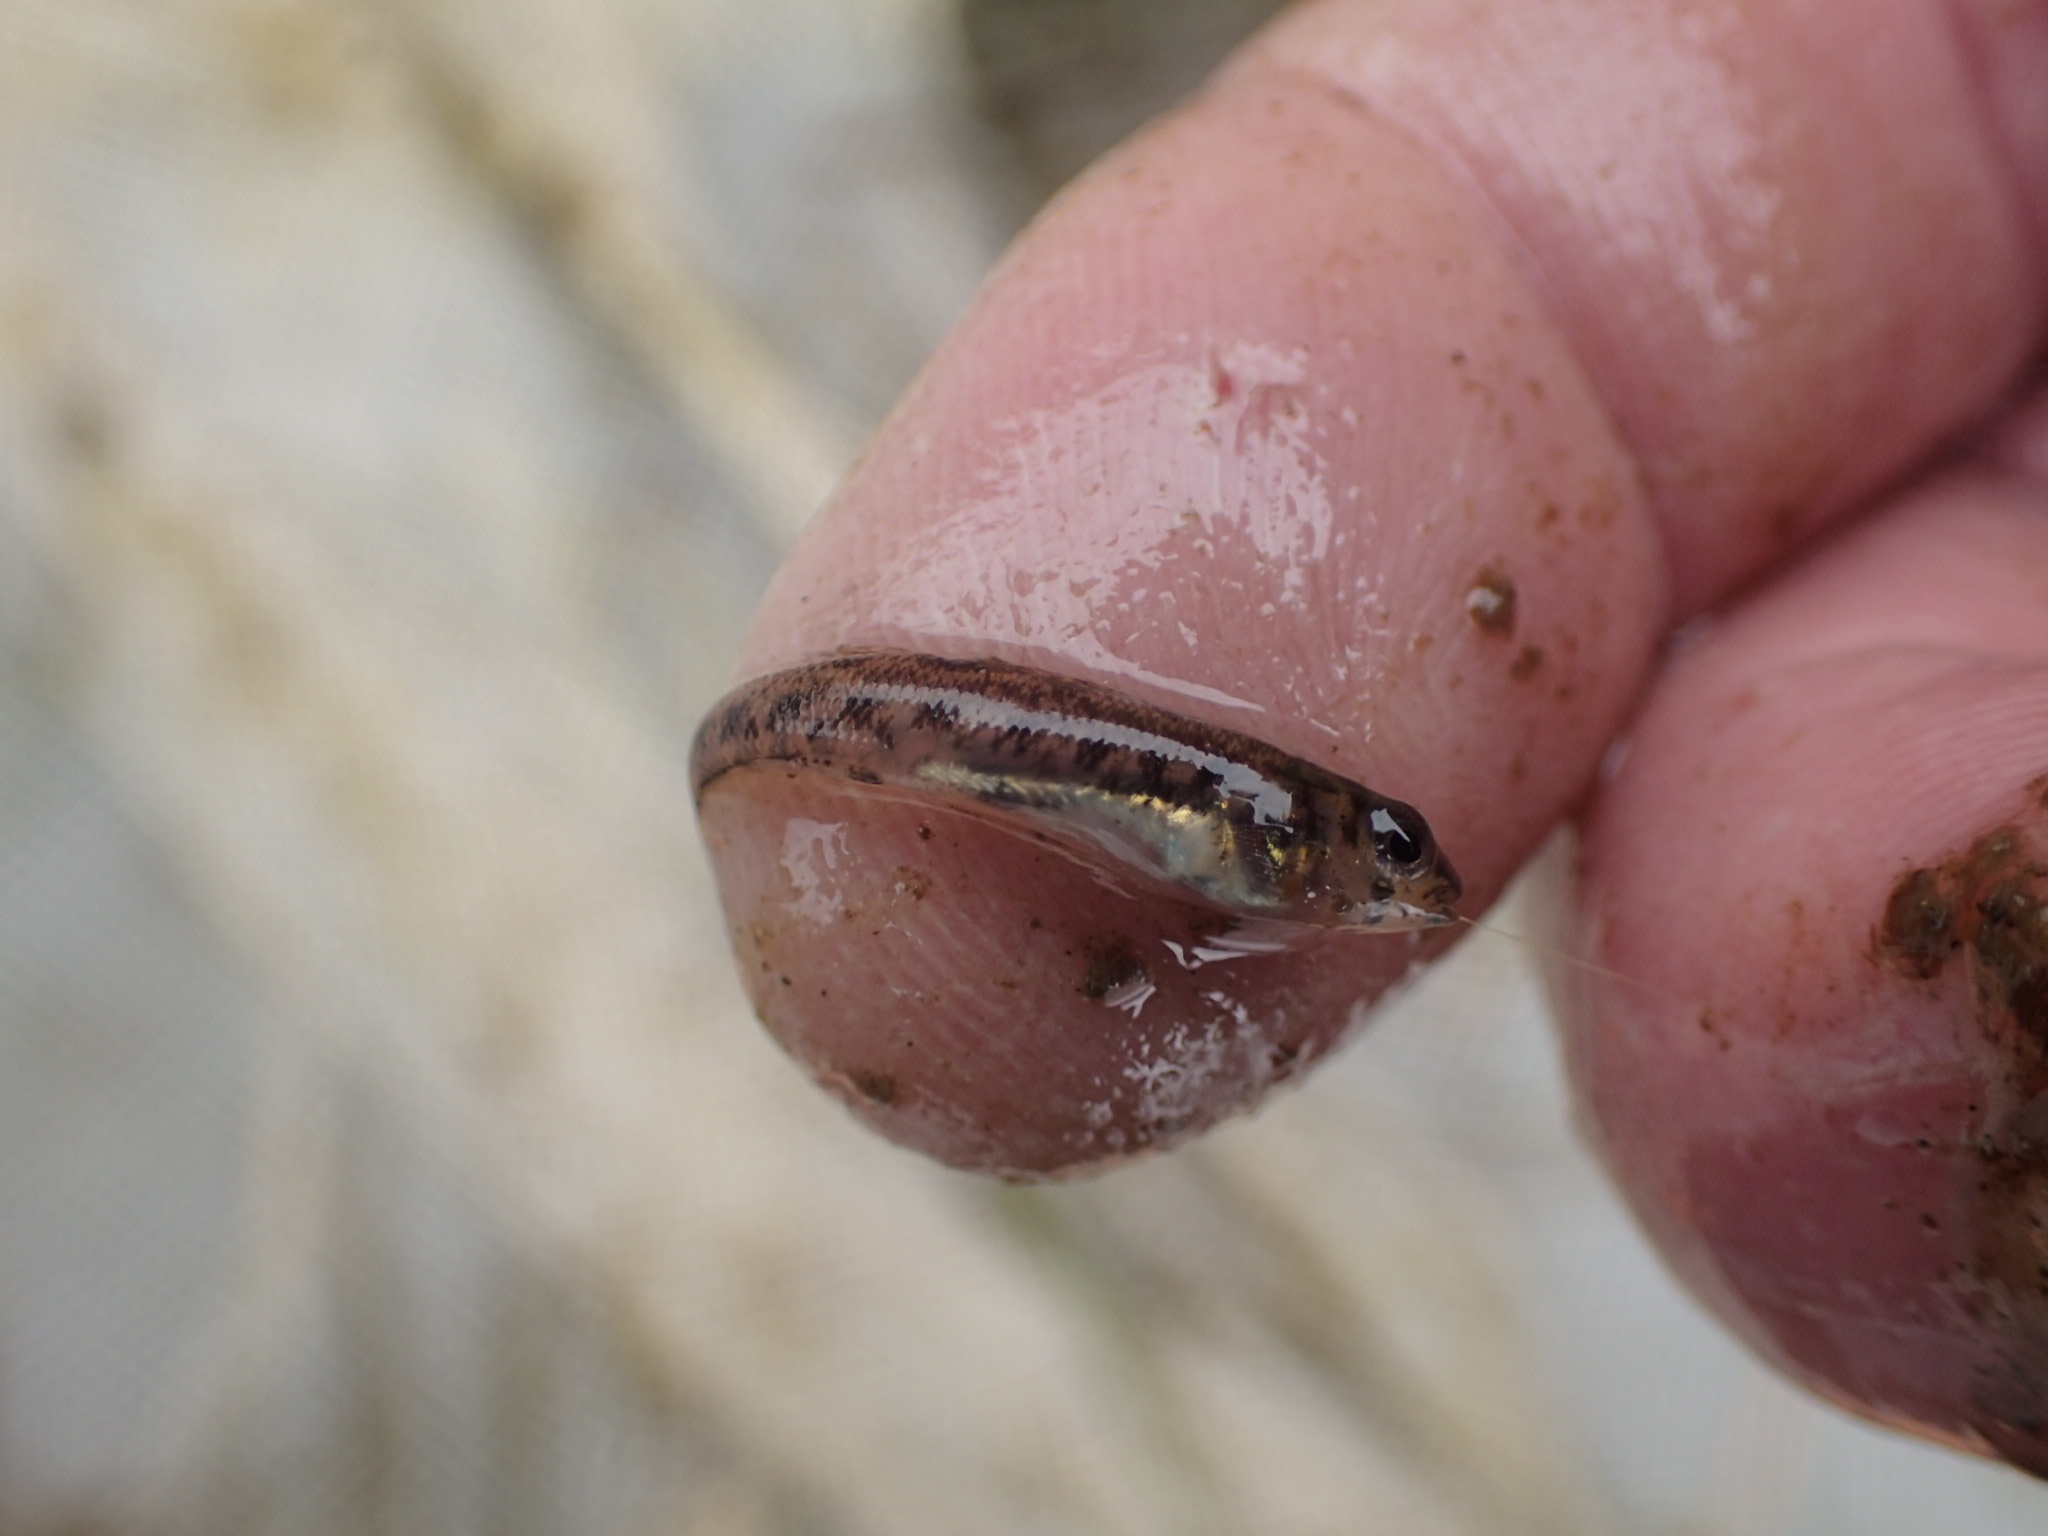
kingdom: Animalia
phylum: Chordata
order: Perciformes
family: Percidae
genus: Etheostoma
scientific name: Etheostoma nigrum
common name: Johnny darter
